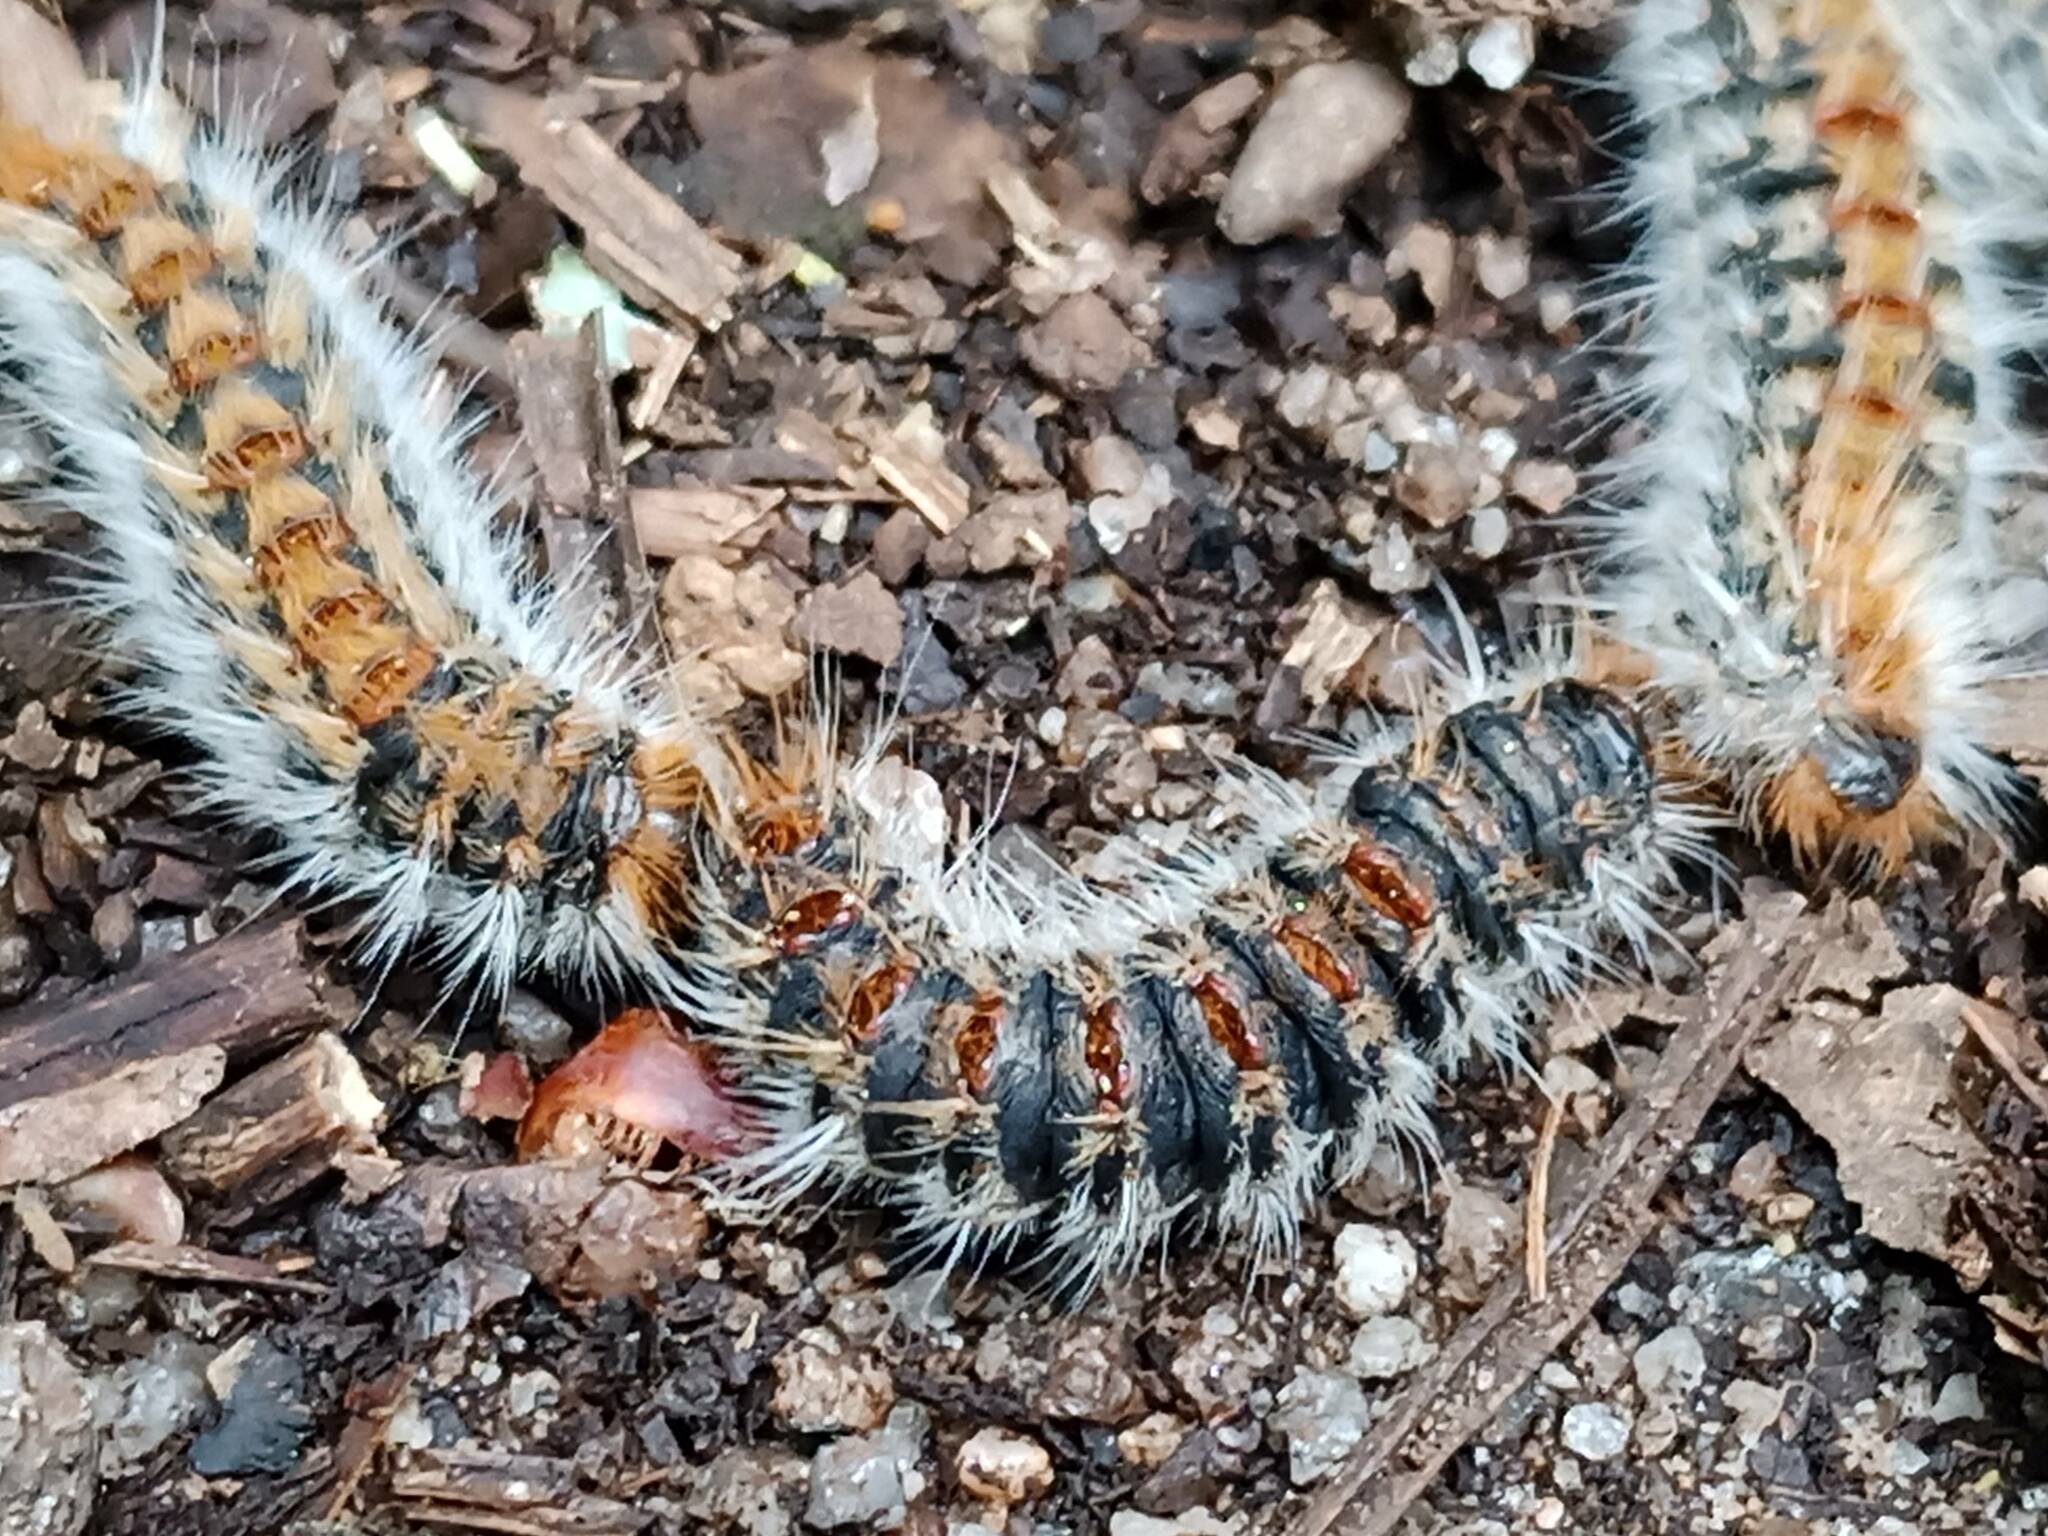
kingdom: Animalia
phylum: Arthropoda
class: Insecta
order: Lepidoptera
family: Notodontidae
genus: Thaumetopoea
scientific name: Thaumetopoea pityocampa
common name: Pine processionary
